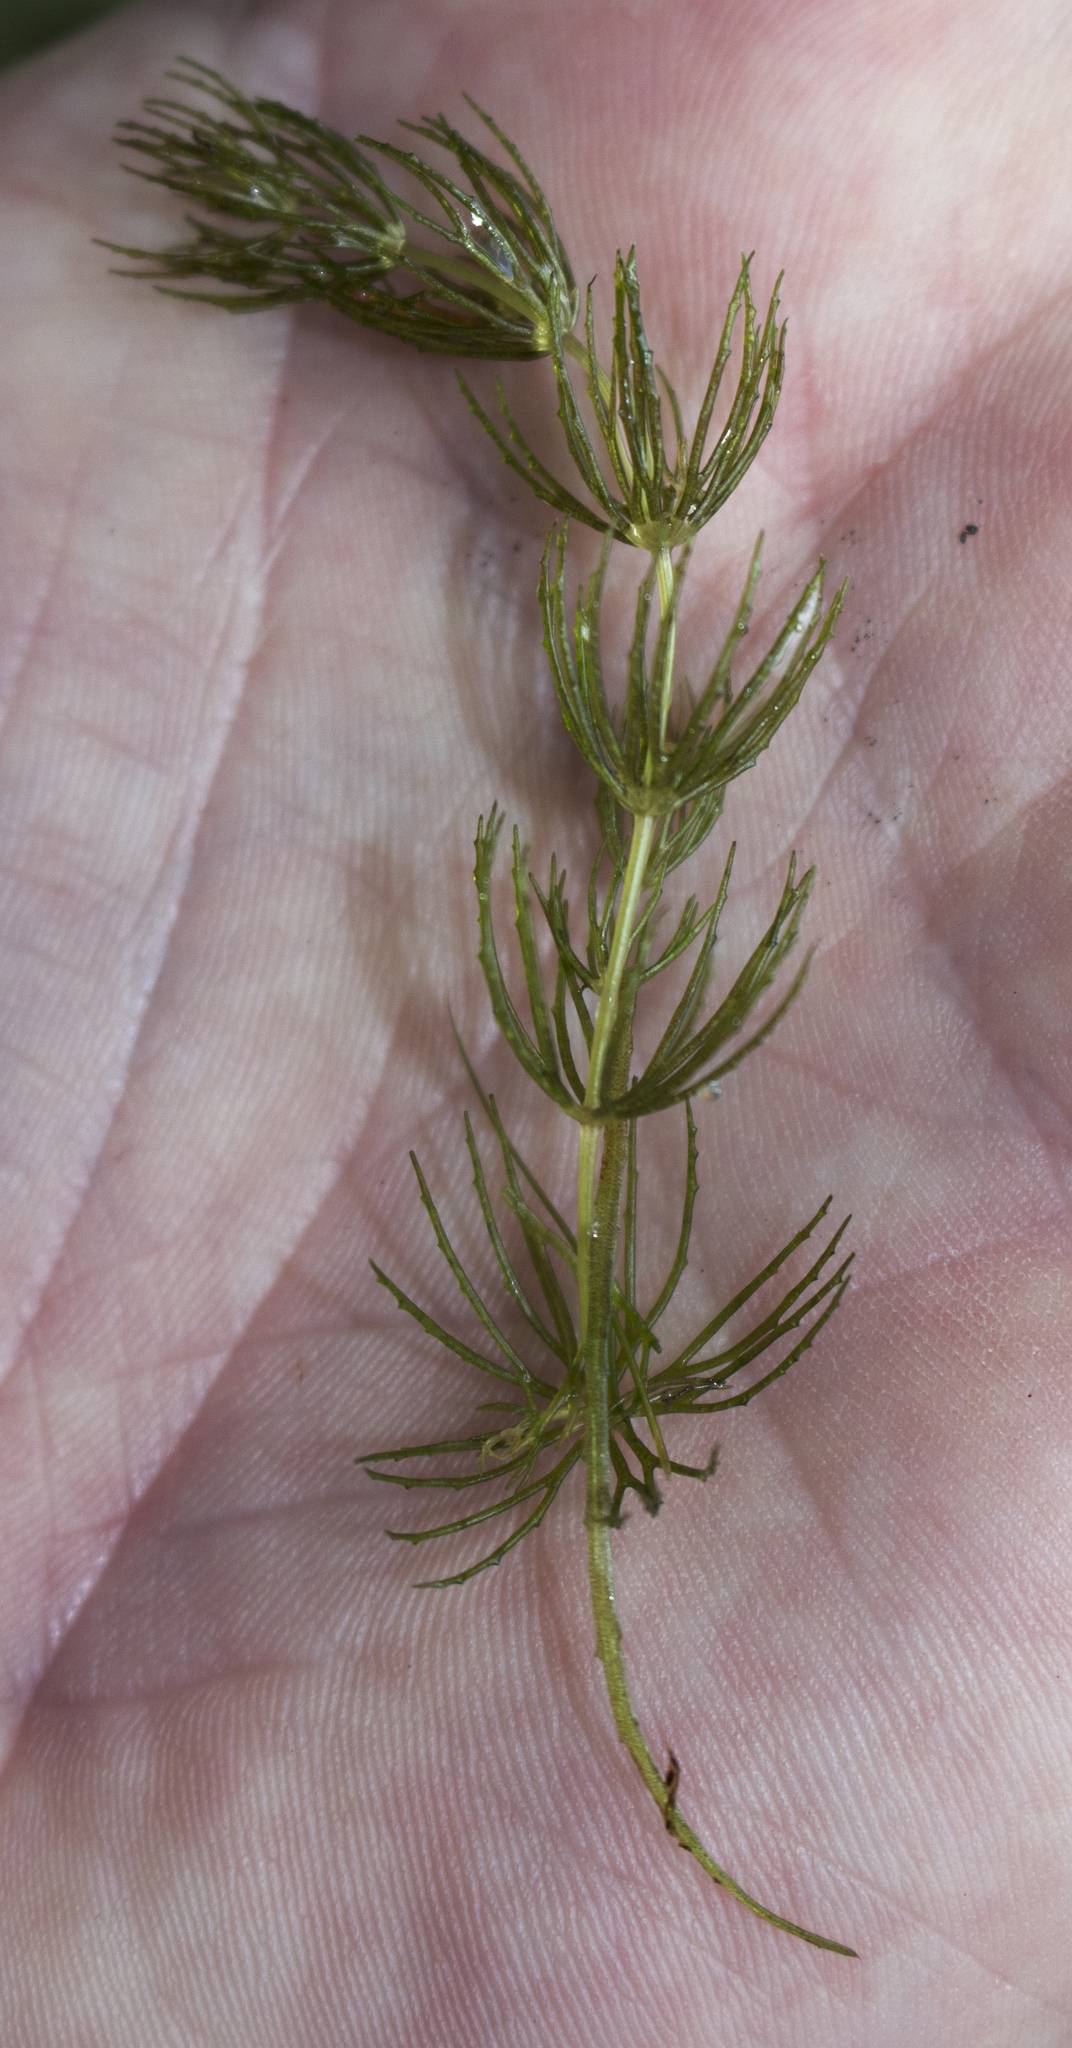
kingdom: Plantae
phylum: Tracheophyta
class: Magnoliopsida
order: Ceratophyllales
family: Ceratophyllaceae
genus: Ceratophyllum
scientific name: Ceratophyllum demersum
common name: Rigid hornwort
